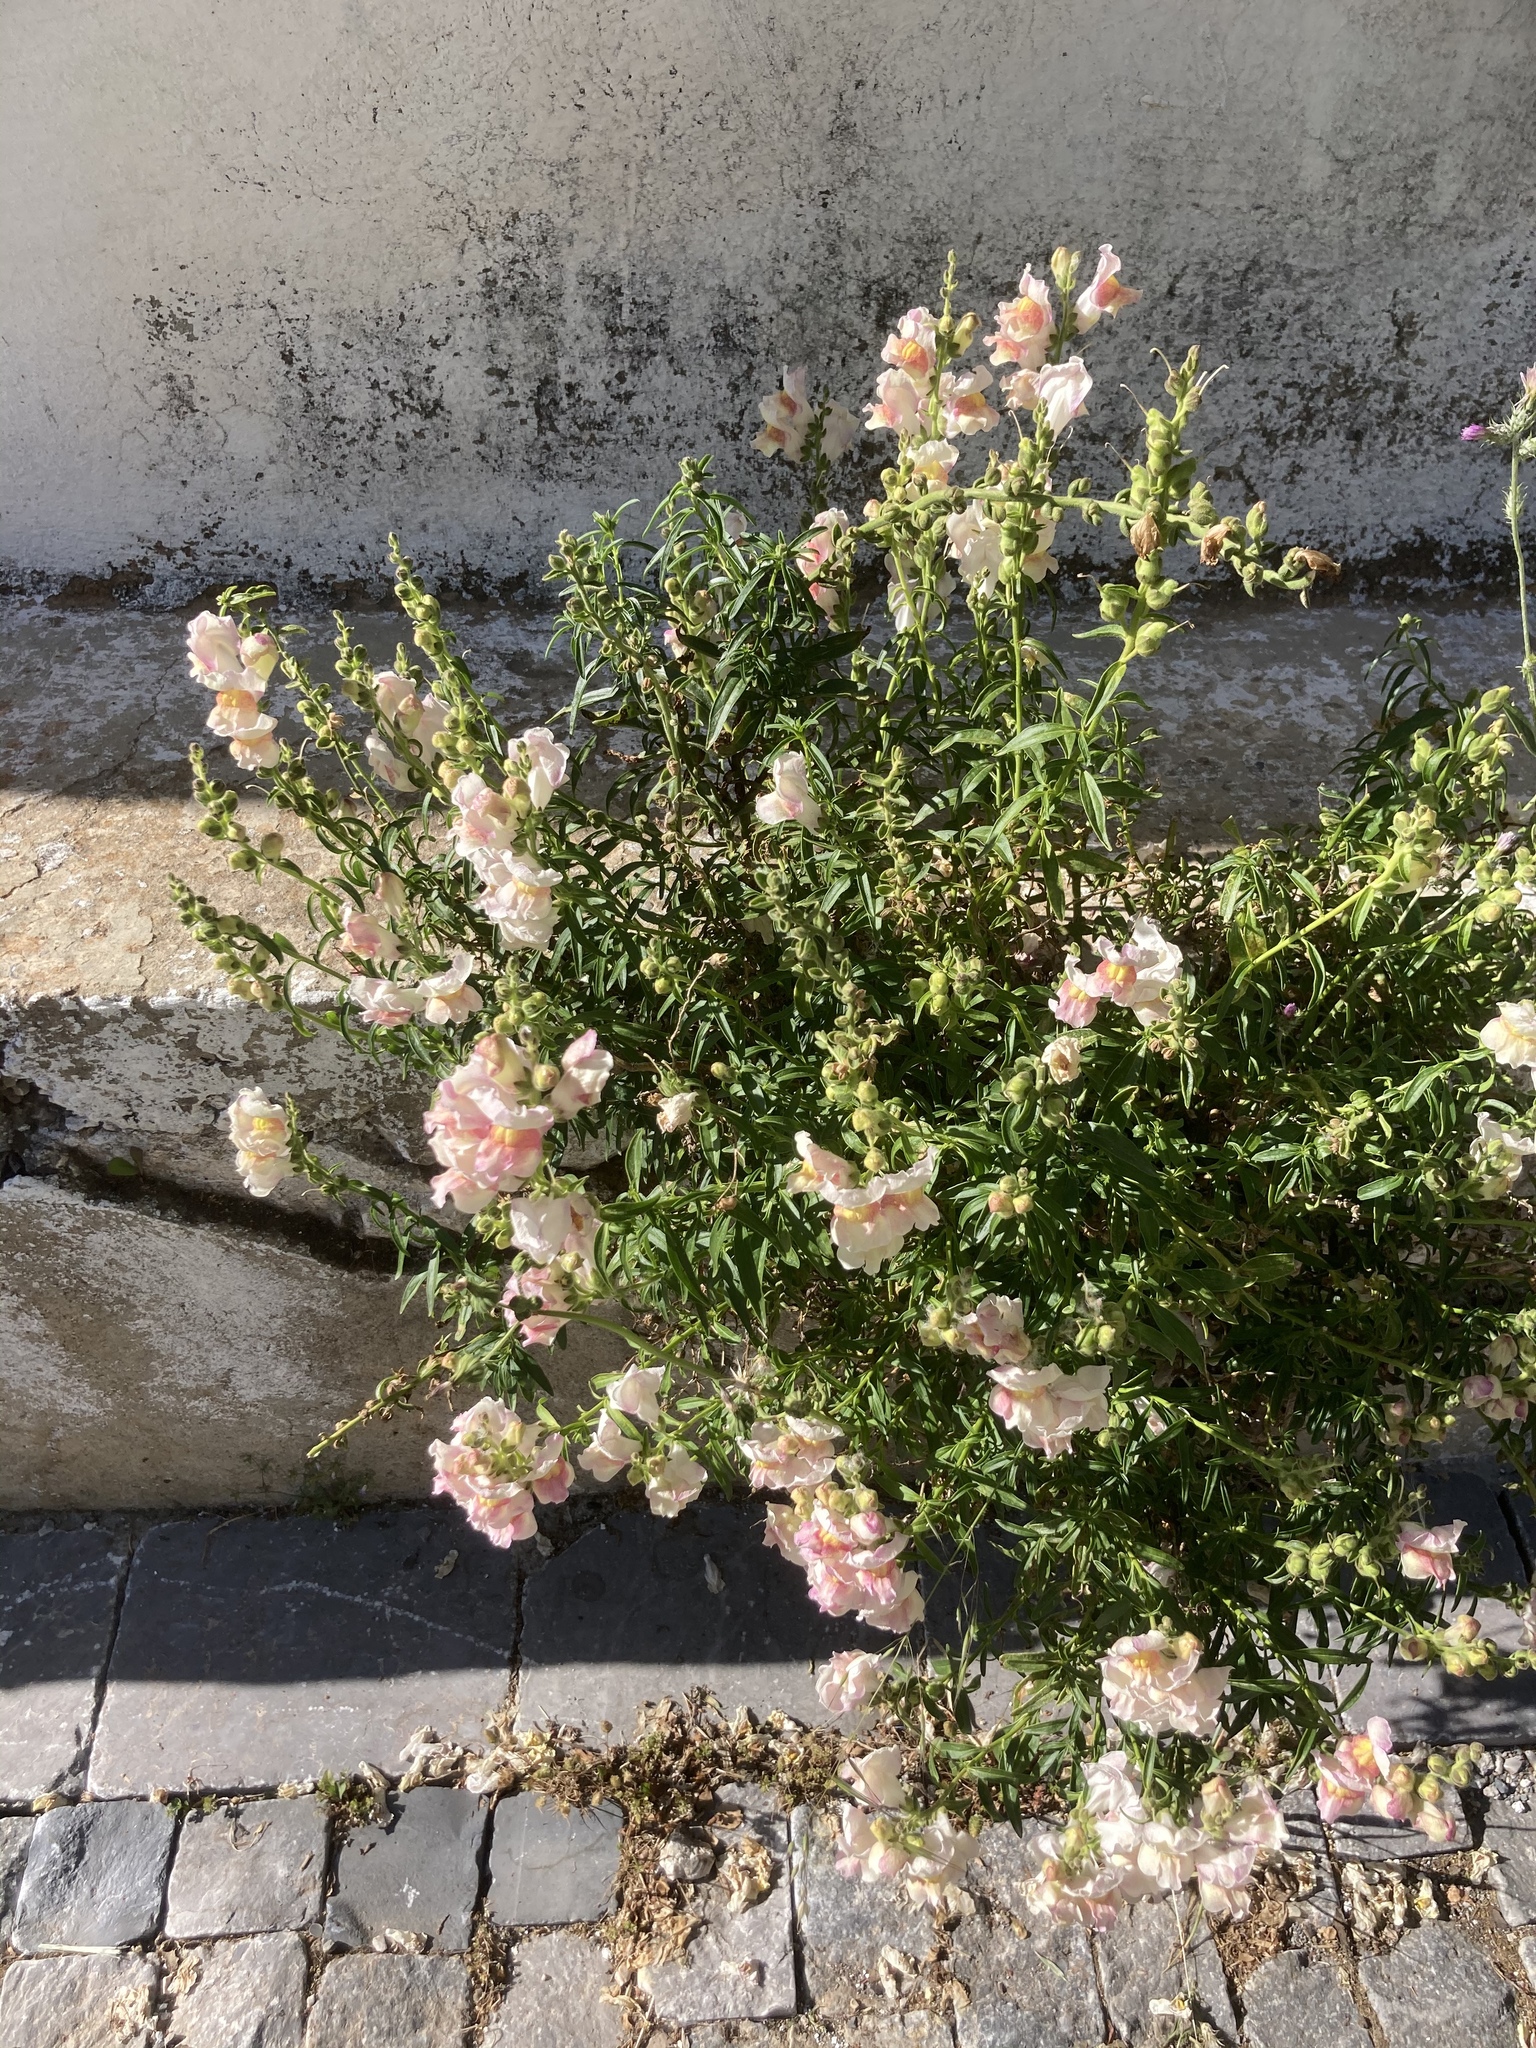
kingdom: Plantae
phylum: Tracheophyta
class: Magnoliopsida
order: Lamiales
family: Plantaginaceae
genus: Antirrhinum
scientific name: Antirrhinum majus
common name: Snapdragon
